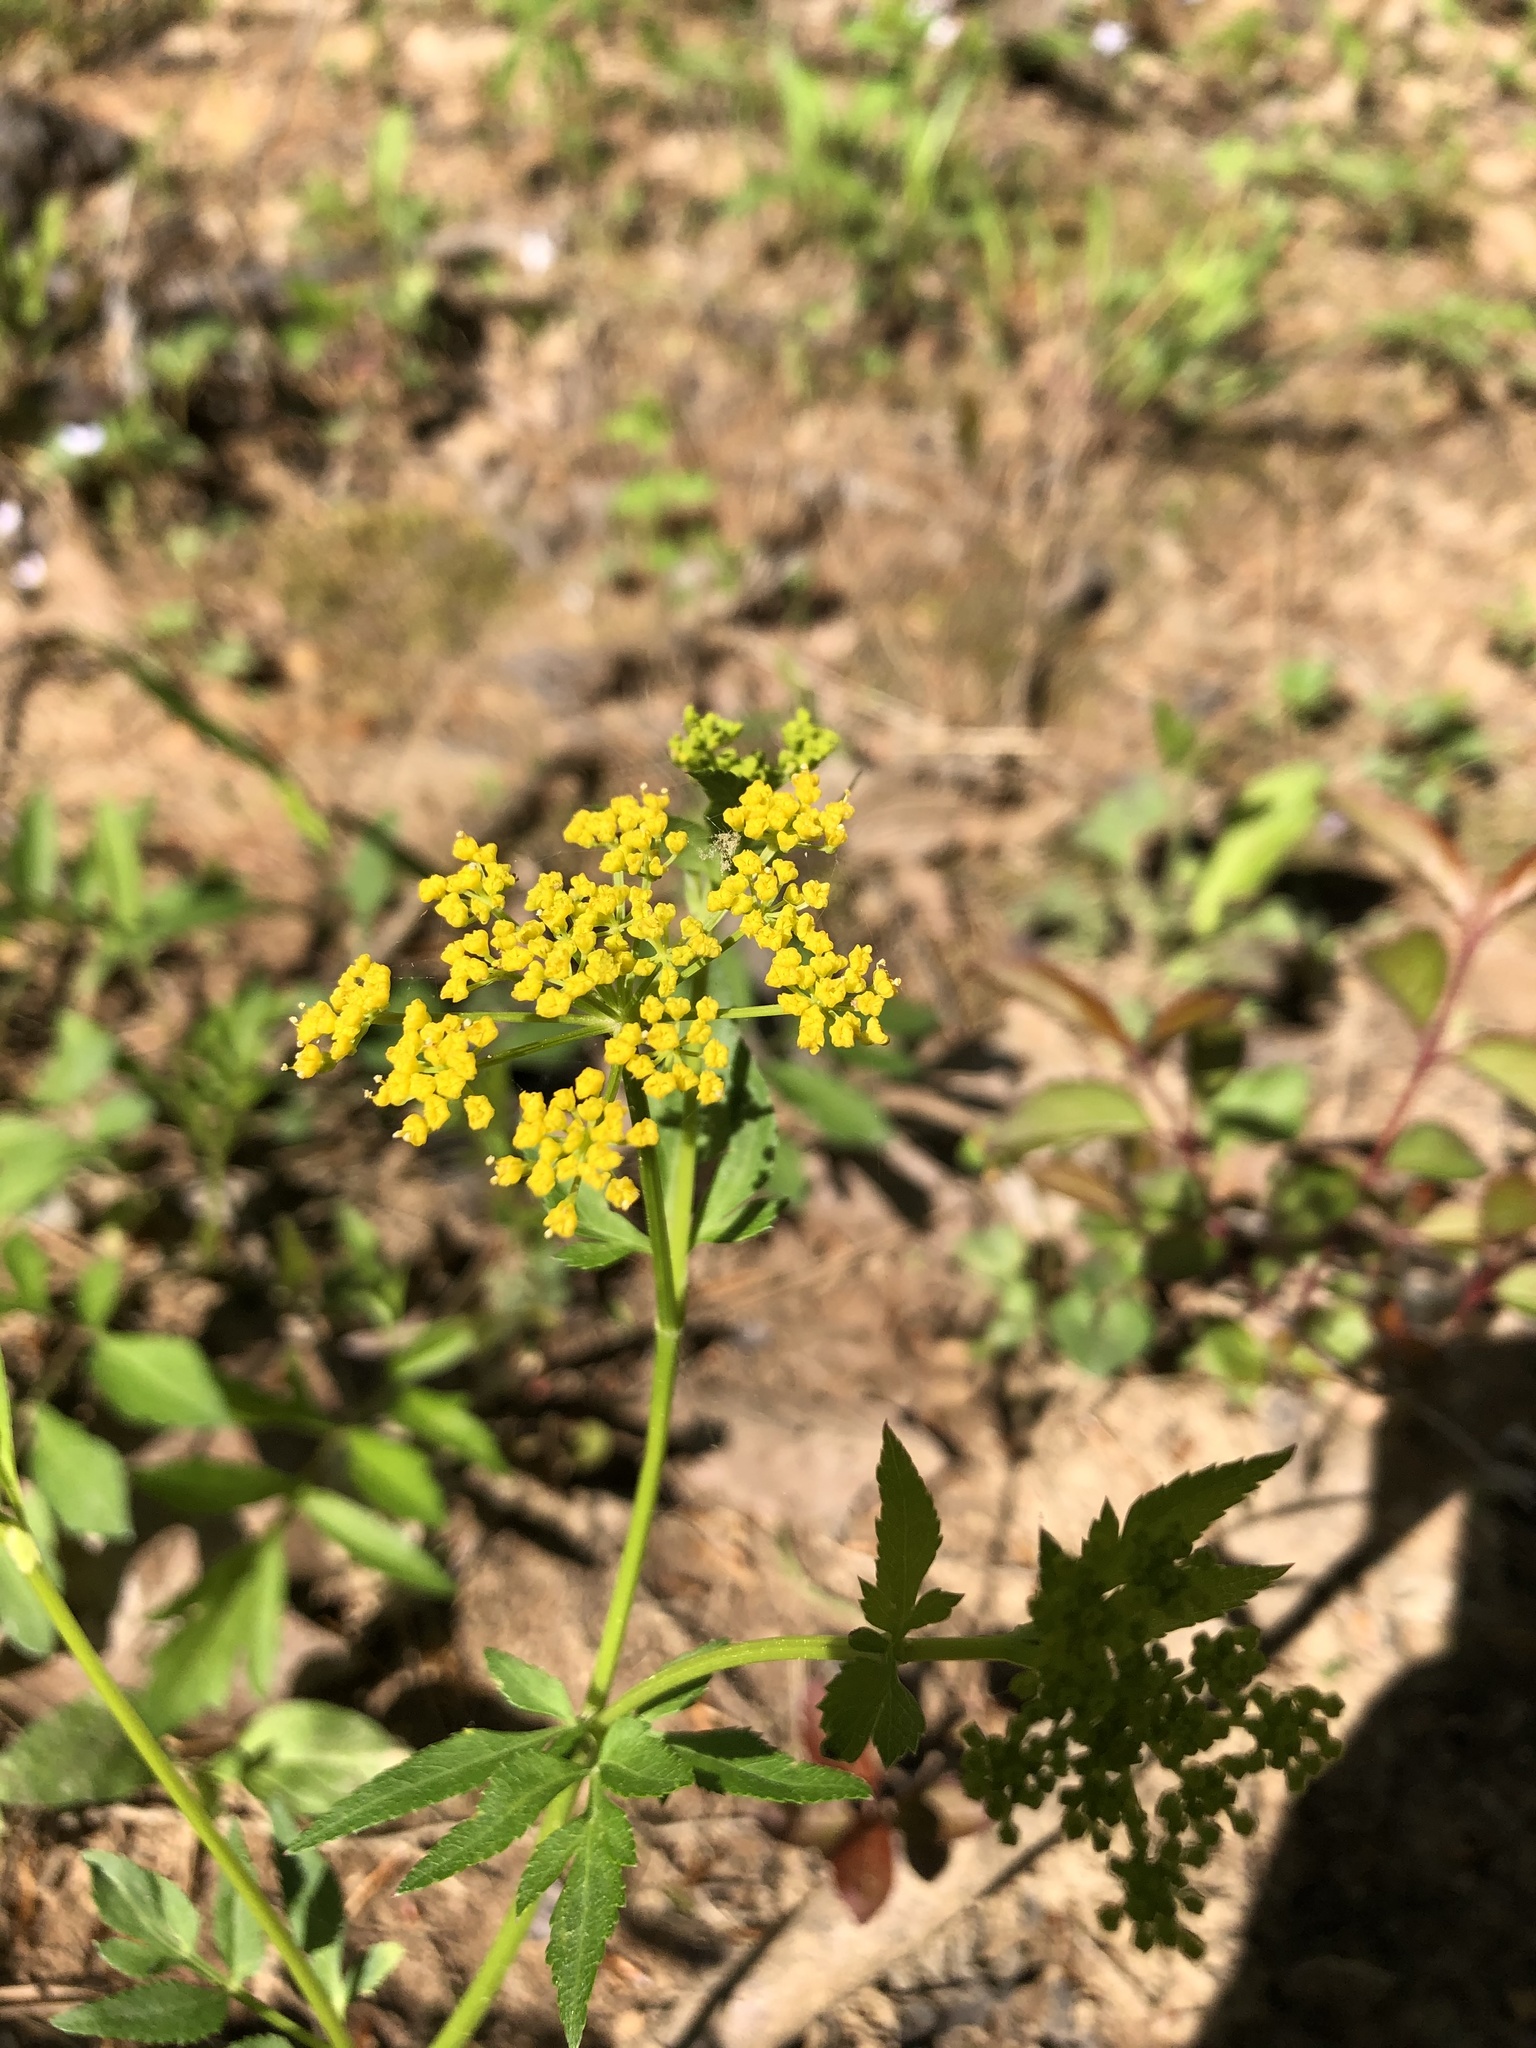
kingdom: Plantae
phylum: Tracheophyta
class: Magnoliopsida
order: Apiales
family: Apiaceae
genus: Zizia
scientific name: Zizia aurea
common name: Golden alexanders
